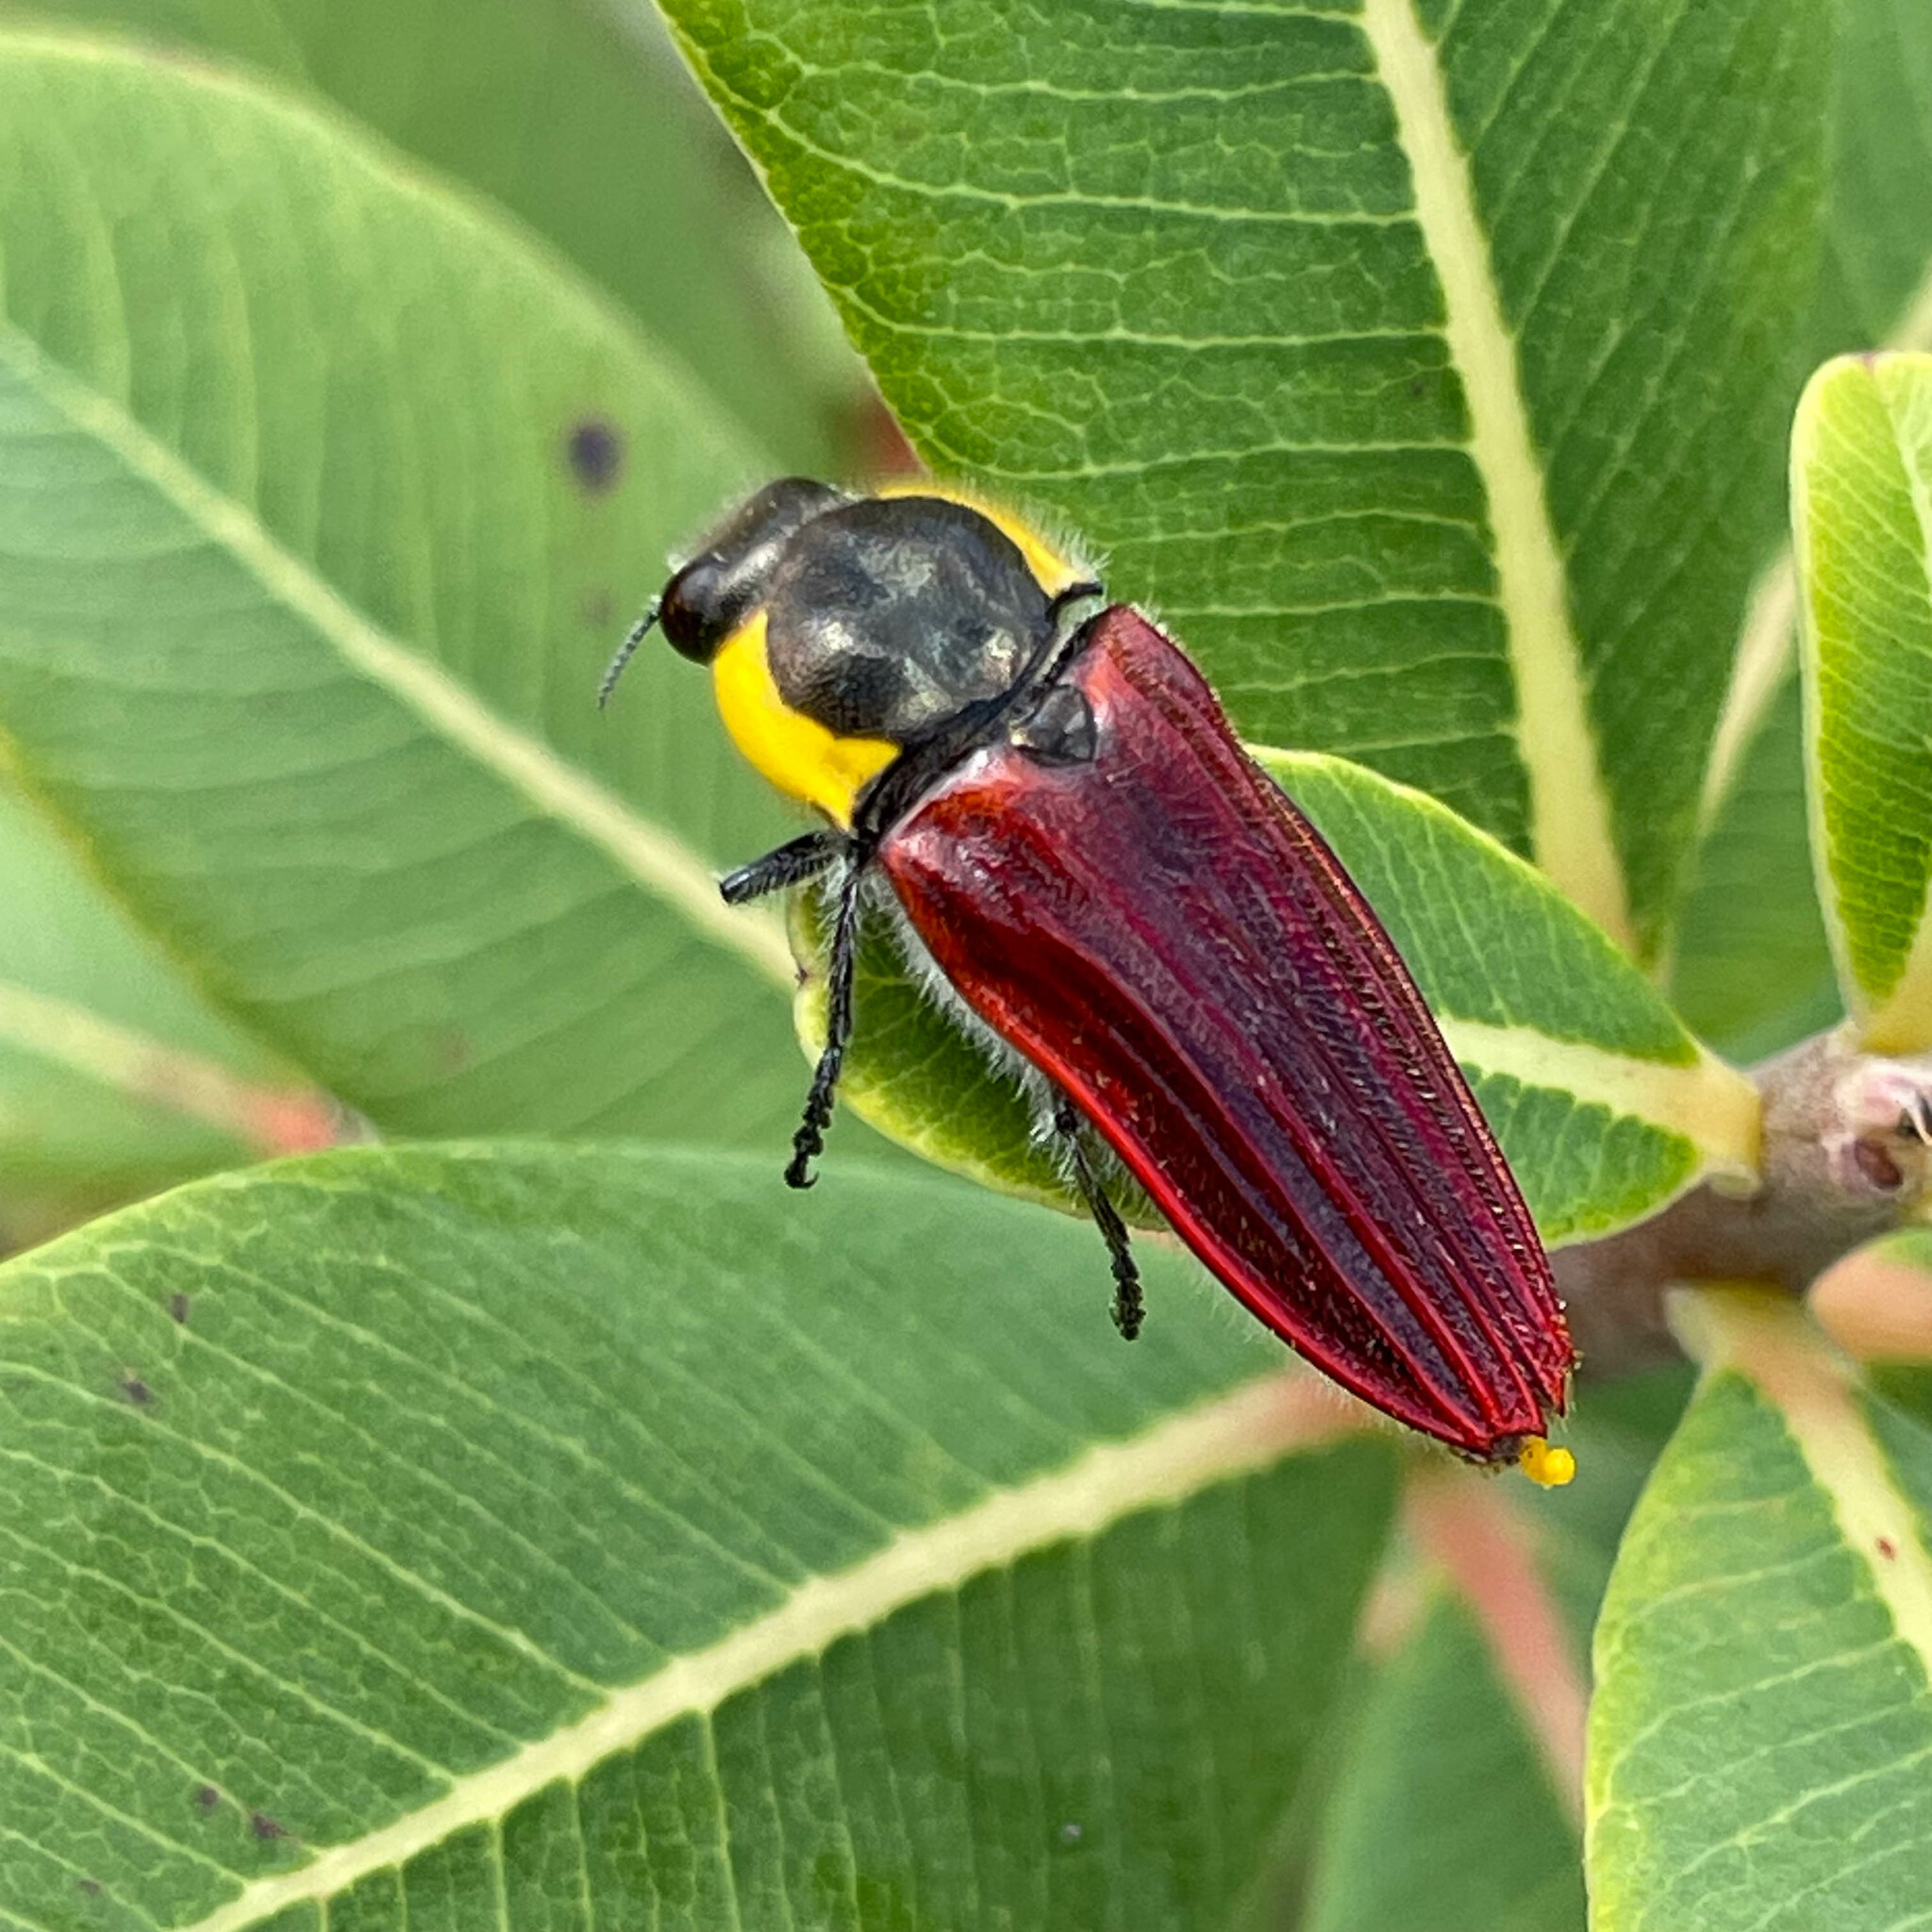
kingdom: Animalia
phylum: Arthropoda
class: Insecta
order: Coleoptera
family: Buprestidae
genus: Hiperantha
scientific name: Hiperantha sanguinosa
